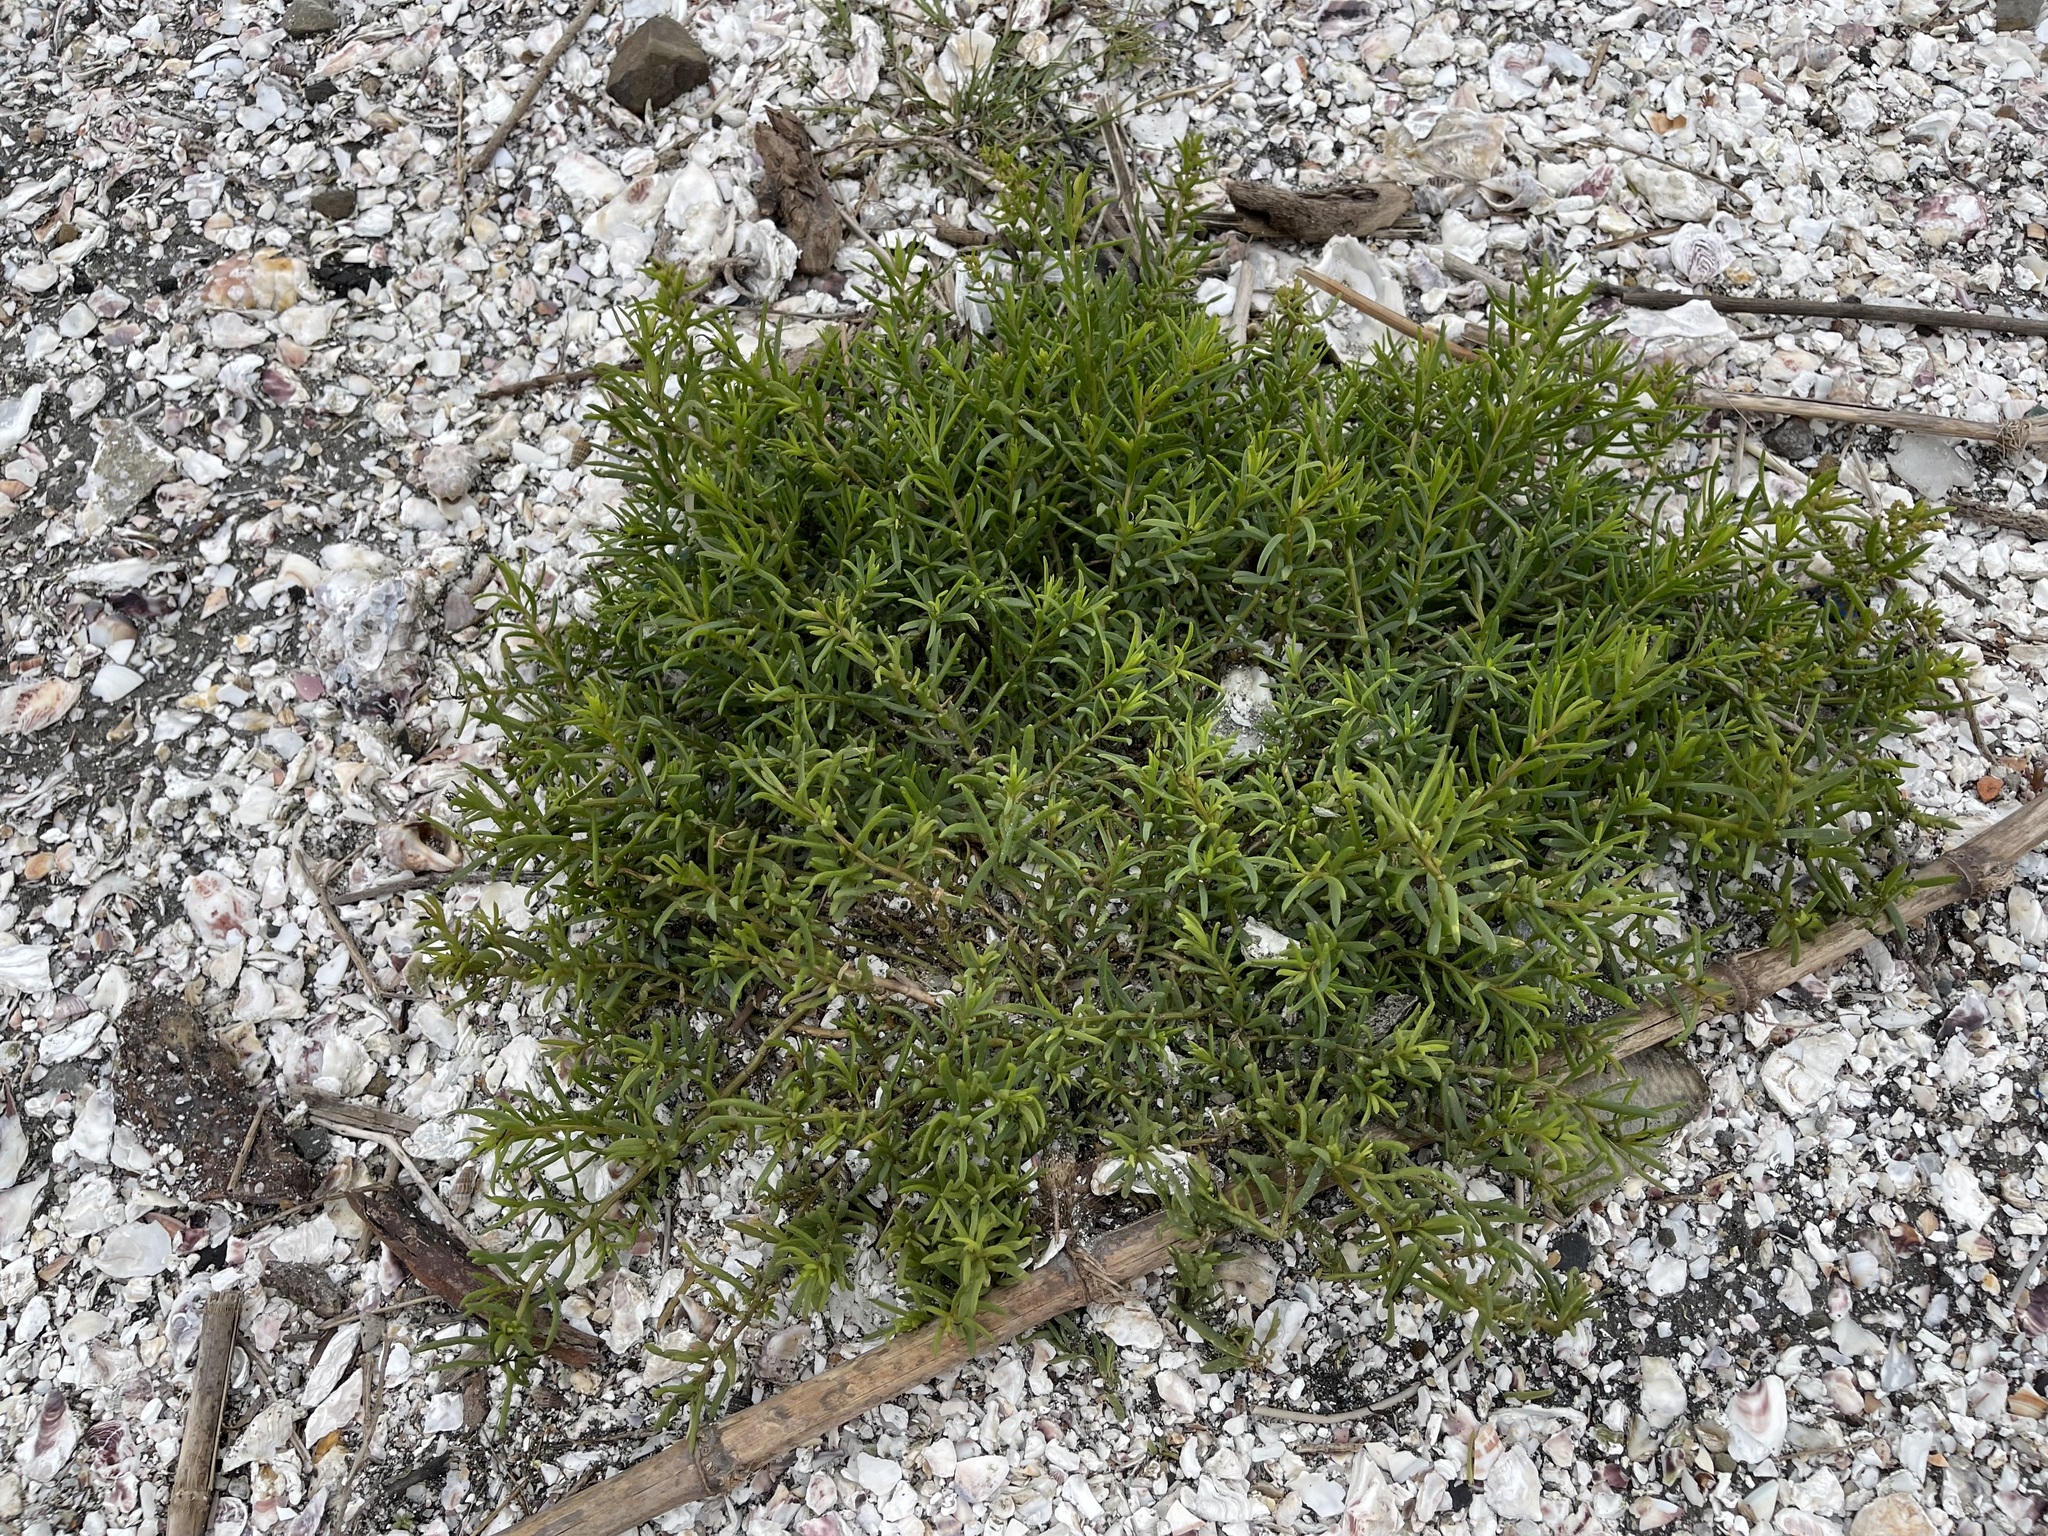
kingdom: Plantae
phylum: Tracheophyta
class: Magnoliopsida
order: Caryophyllales
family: Amaranthaceae
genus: Suaeda
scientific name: Suaeda maritima
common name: Annual sea-blite
